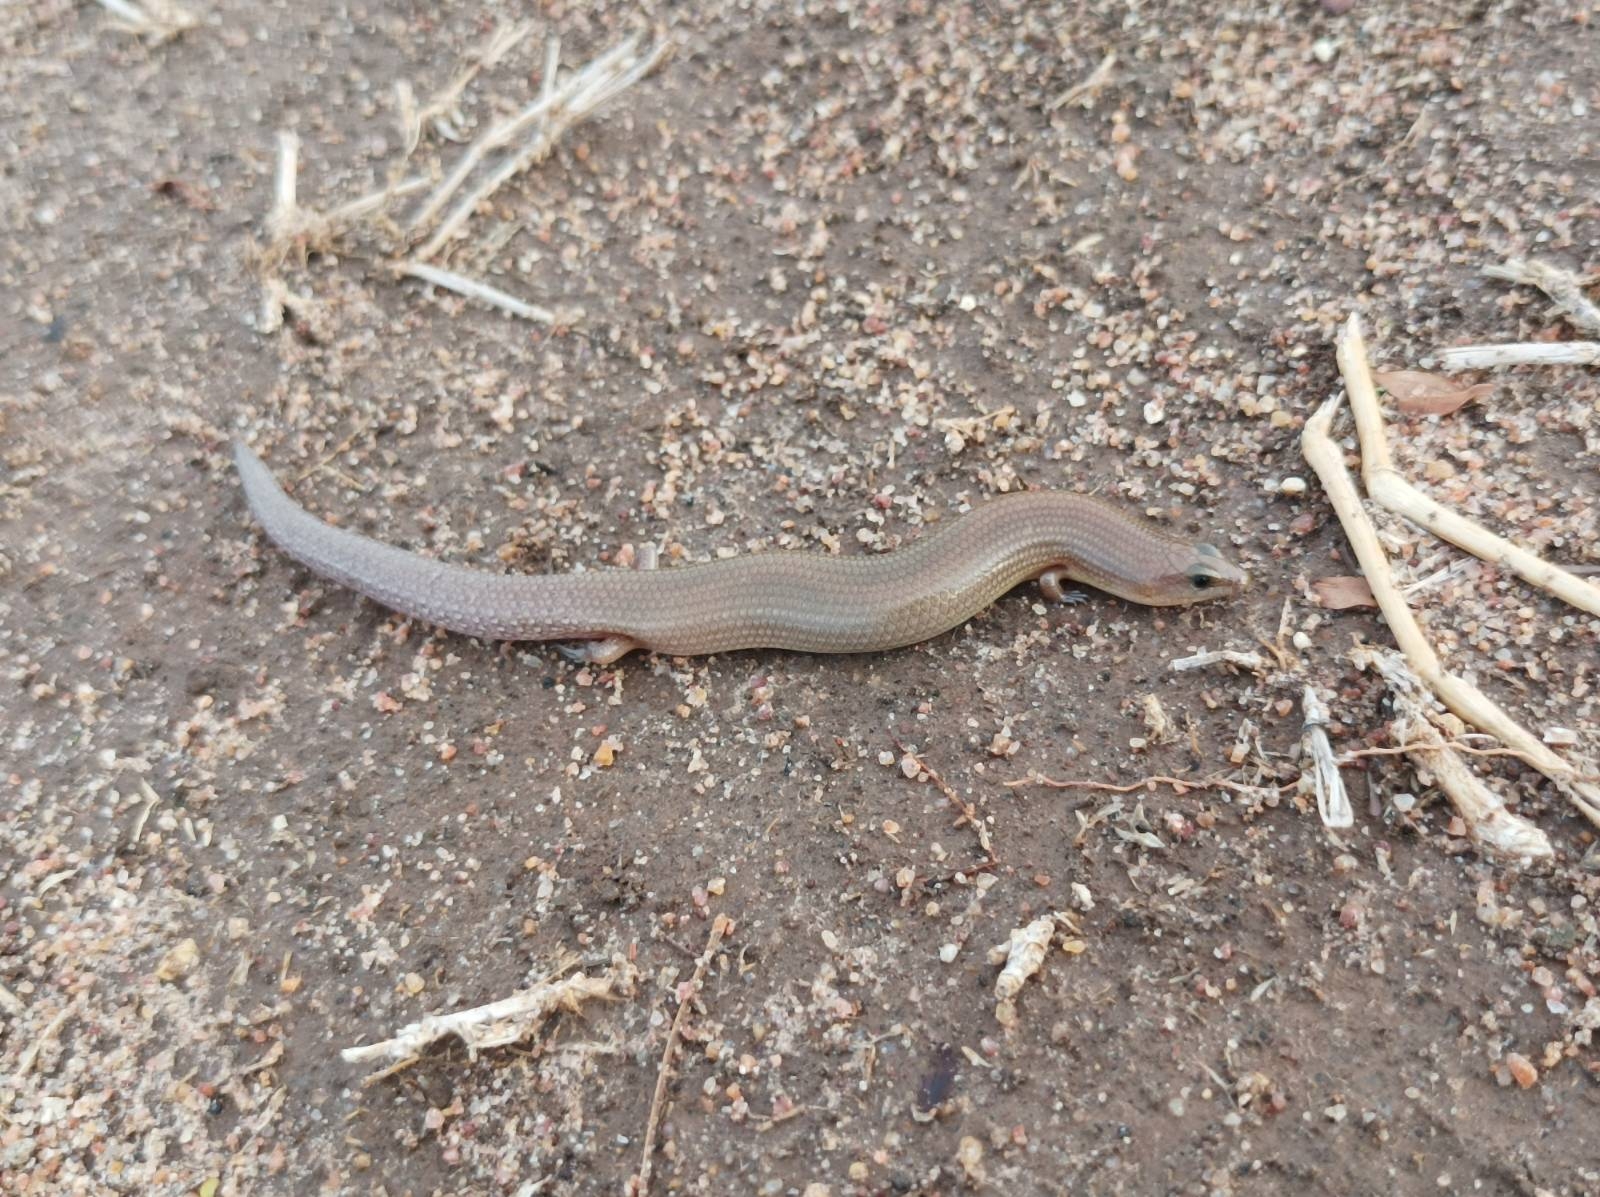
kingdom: Animalia
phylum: Chordata
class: Squamata
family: Scincidae
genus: Mochlus
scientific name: Mochlus sundevallii
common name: Peters' eyelid skink
